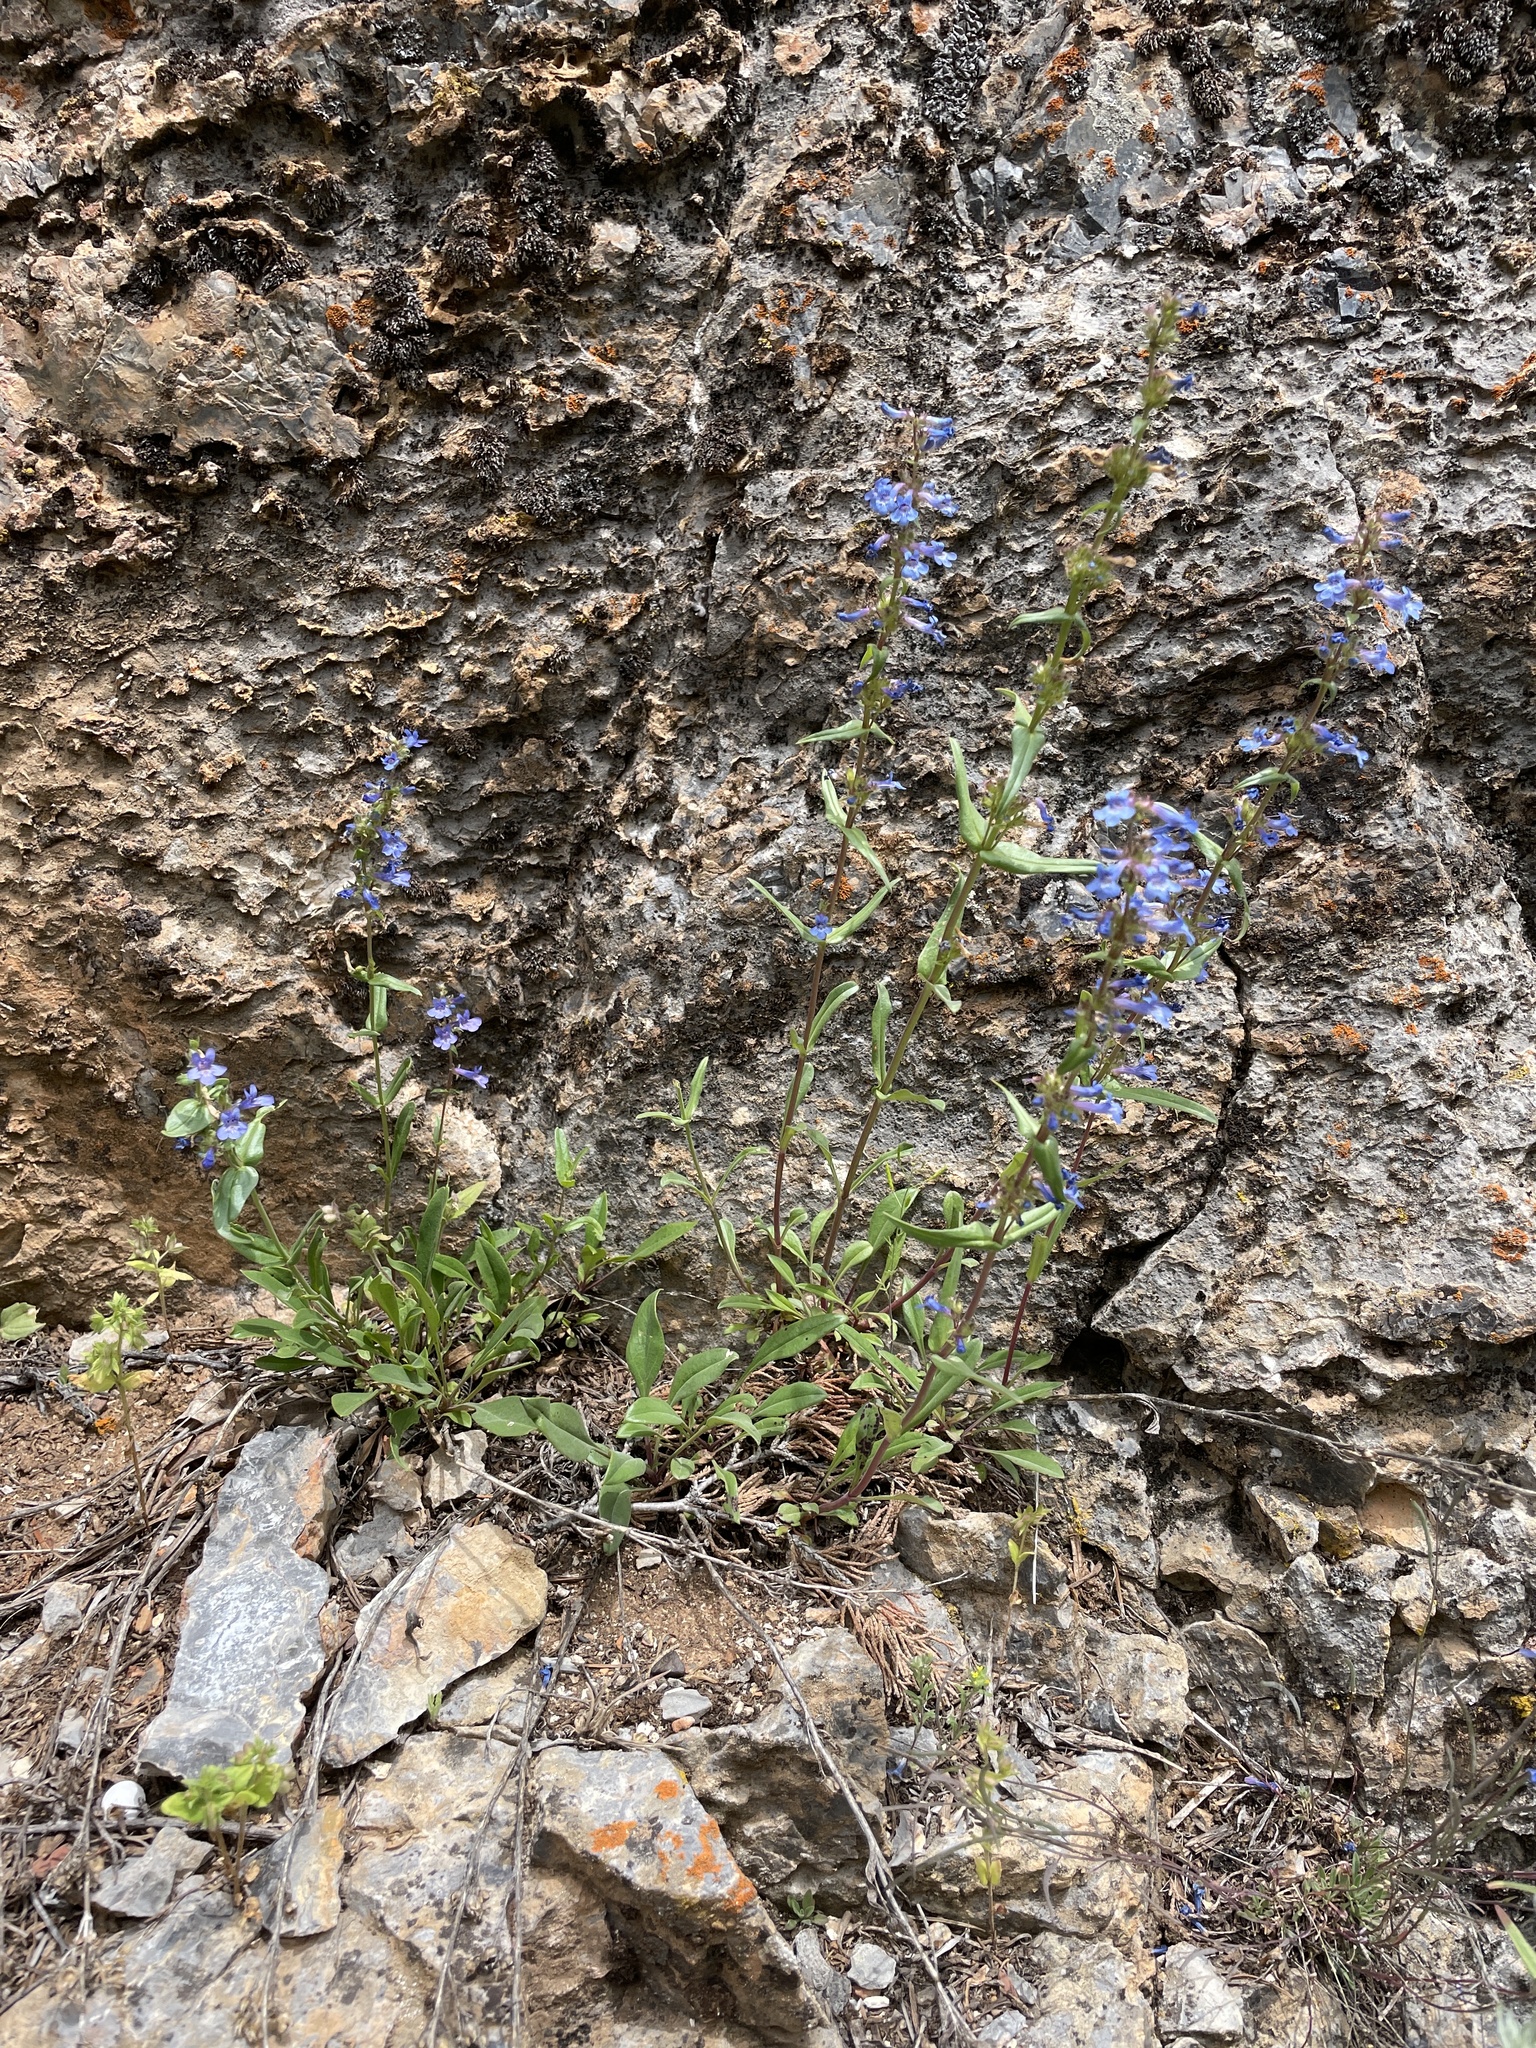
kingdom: Plantae
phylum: Tracheophyta
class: Magnoliopsida
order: Lamiales
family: Plantaginaceae
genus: Penstemon
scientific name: Penstemon humilis
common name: Low penstemon
